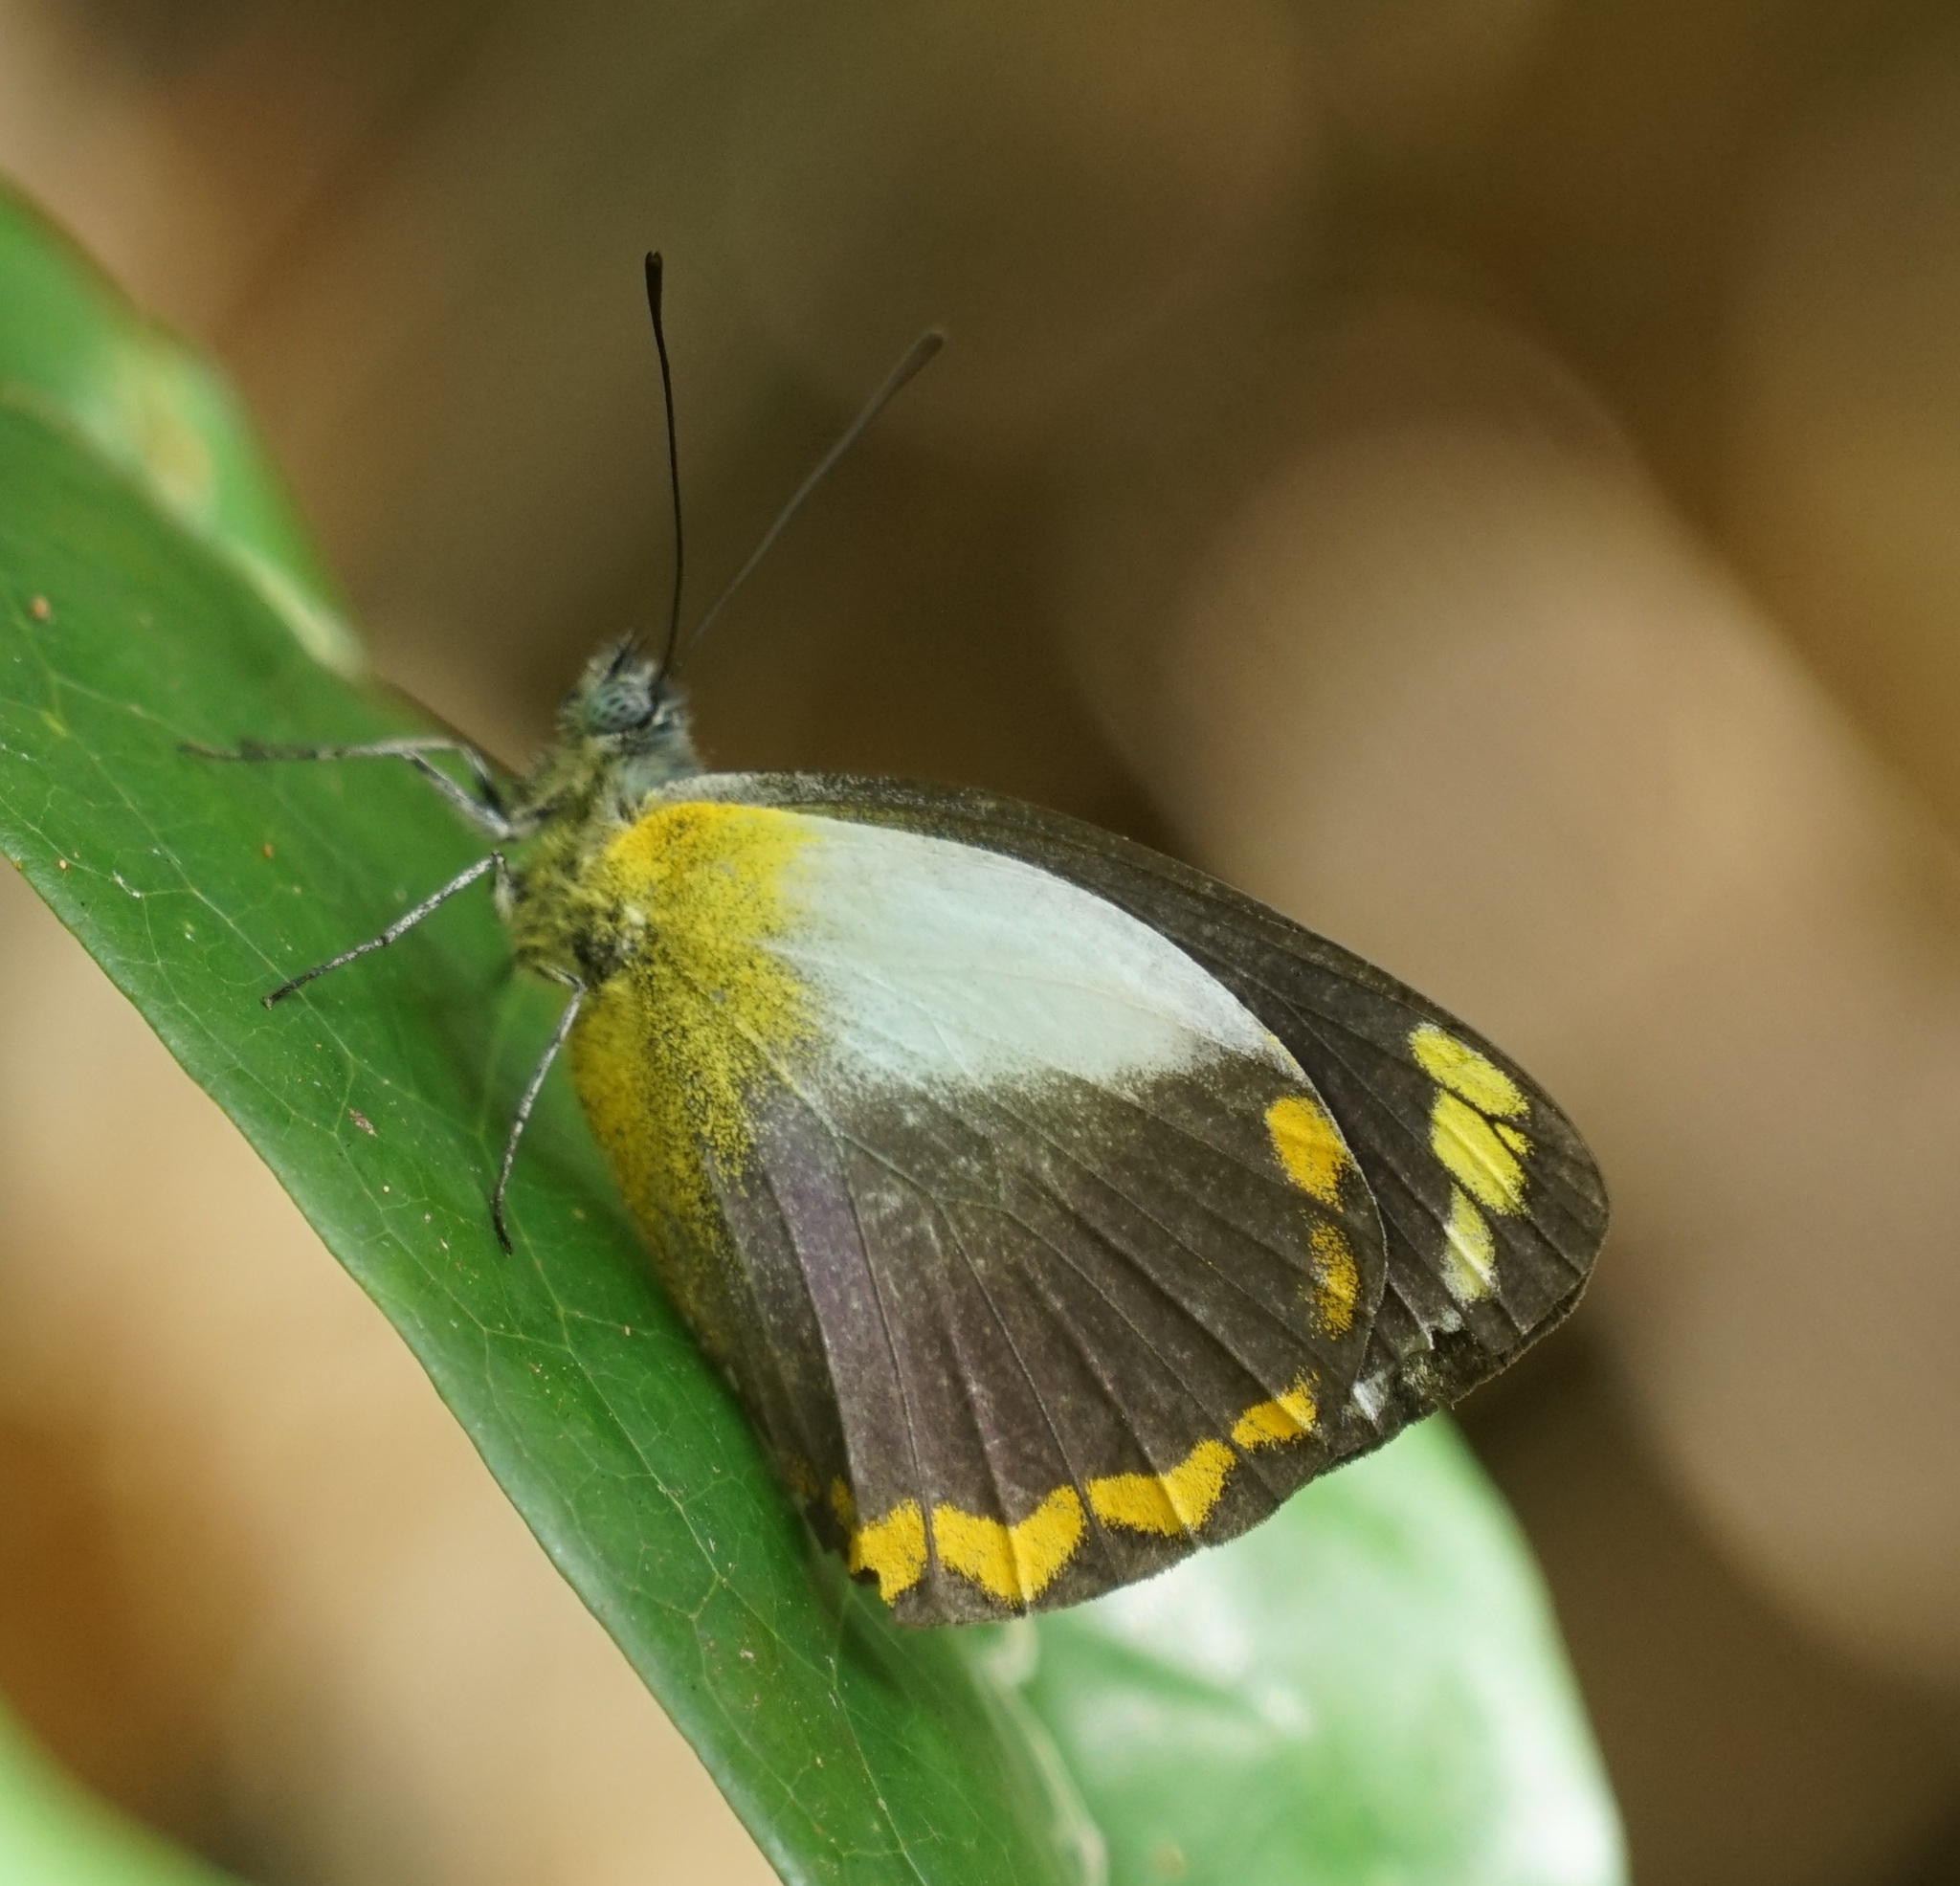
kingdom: Animalia
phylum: Arthropoda
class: Insecta
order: Lepidoptera
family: Pieridae
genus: Delias
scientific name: Delias ennia
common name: Yellow-banded jezebel
